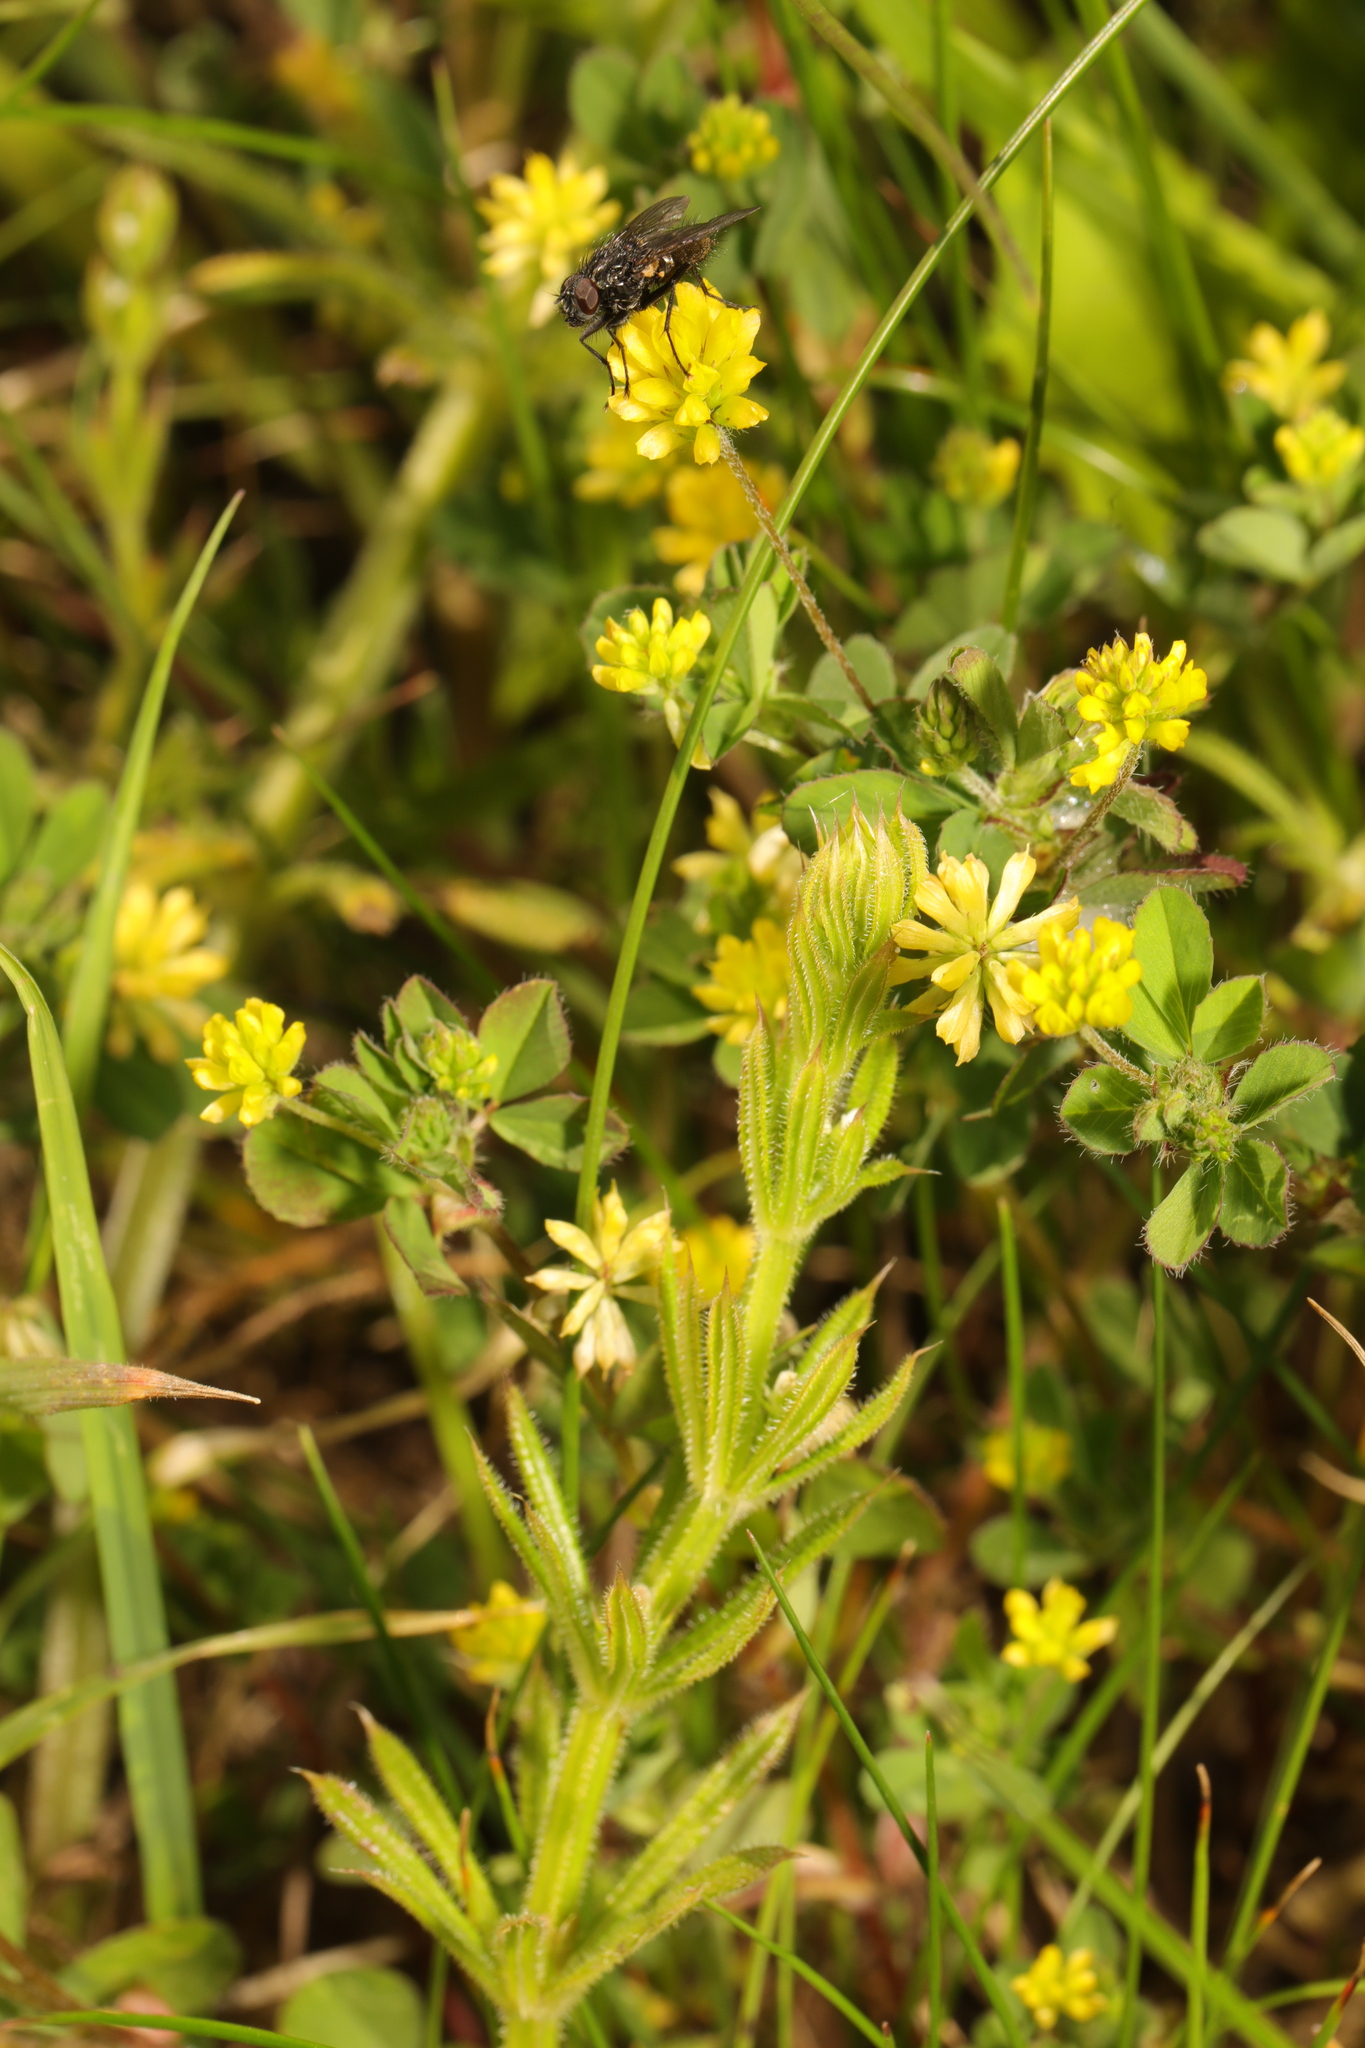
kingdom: Plantae
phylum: Tracheophyta
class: Magnoliopsida
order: Fabales
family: Fabaceae
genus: Trifolium
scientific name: Trifolium dubium
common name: Suckling clover
